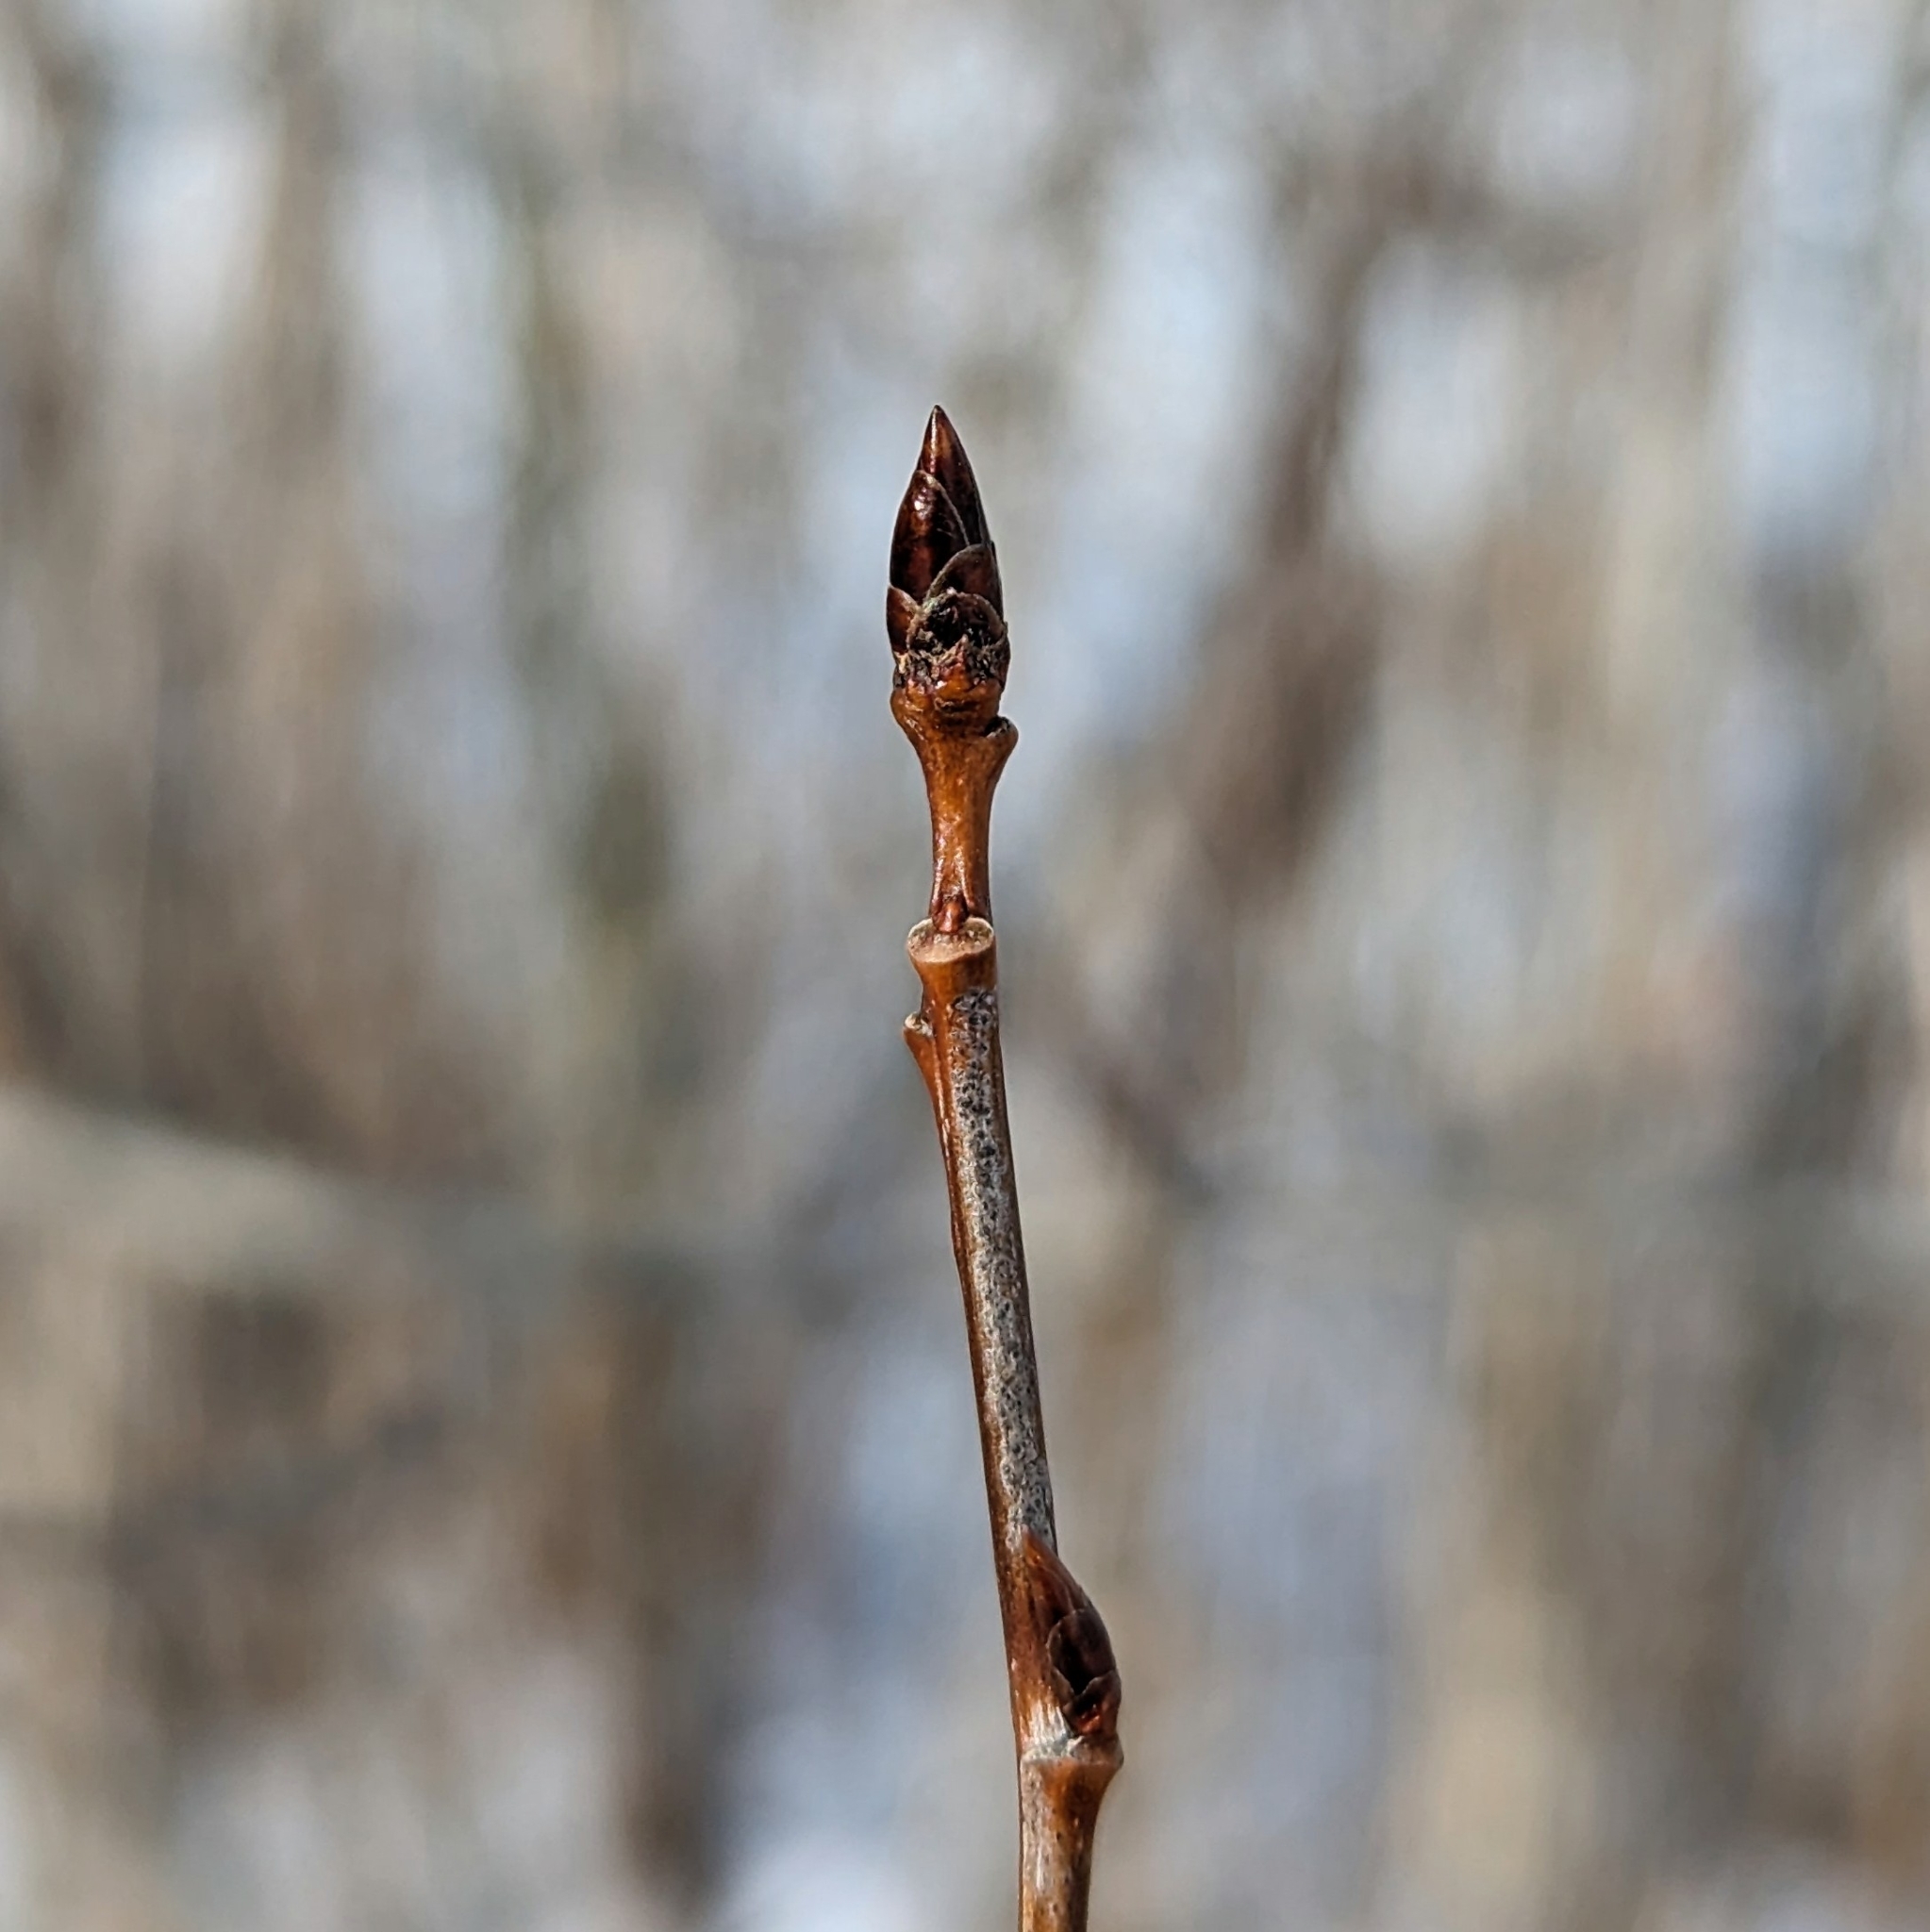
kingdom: Plantae
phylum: Tracheophyta
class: Magnoliopsida
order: Malpighiales
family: Salicaceae
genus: Populus
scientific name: Populus tremuloides
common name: Quaking aspen
